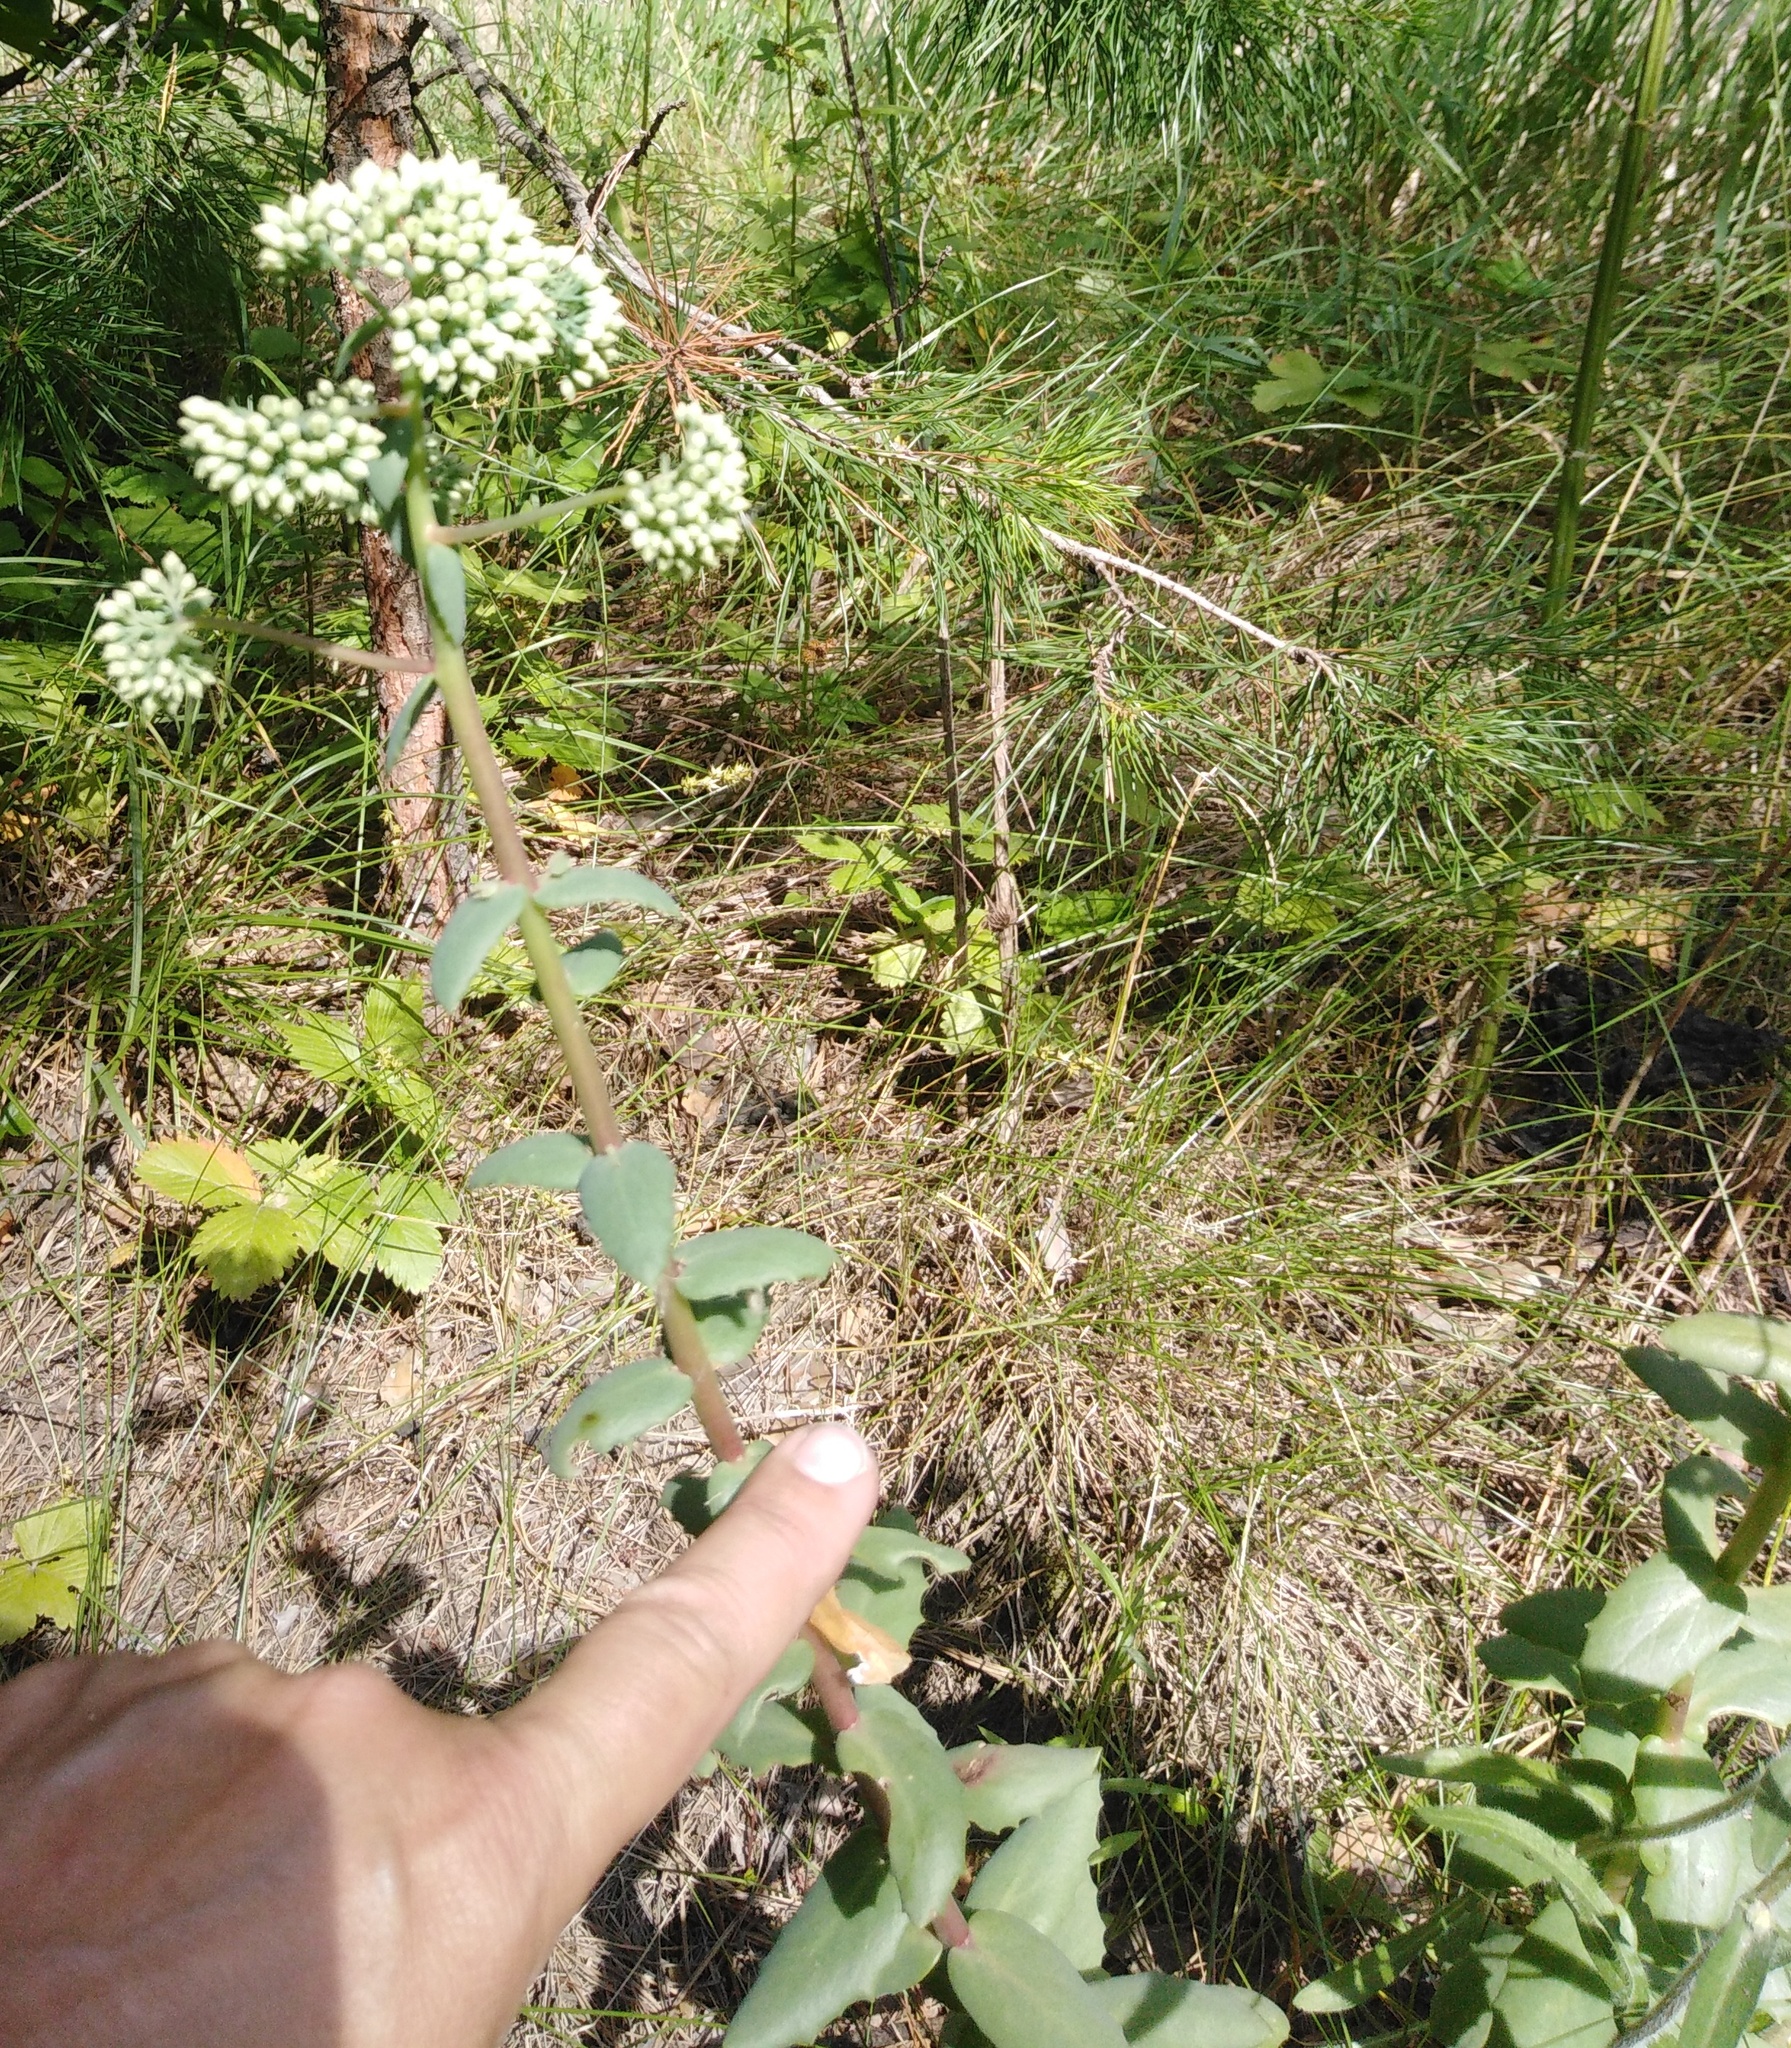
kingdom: Plantae
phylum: Tracheophyta
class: Magnoliopsida
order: Saxifragales
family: Crassulaceae
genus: Hylotelephium
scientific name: Hylotelephium maximum
